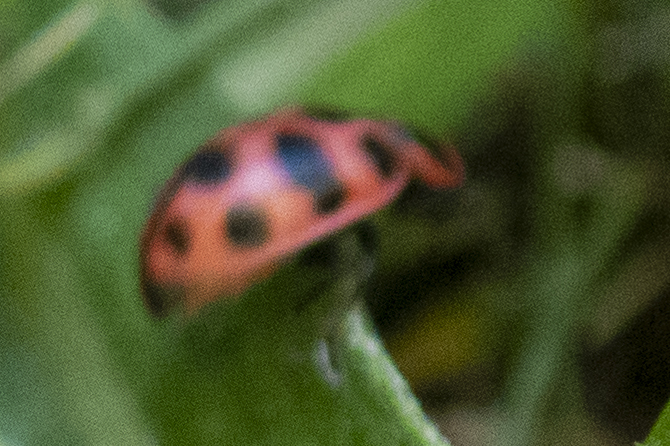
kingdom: Animalia
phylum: Arthropoda
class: Insecta
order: Coleoptera
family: Coccinellidae
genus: Coleomegilla
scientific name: Coleomegilla maculata
